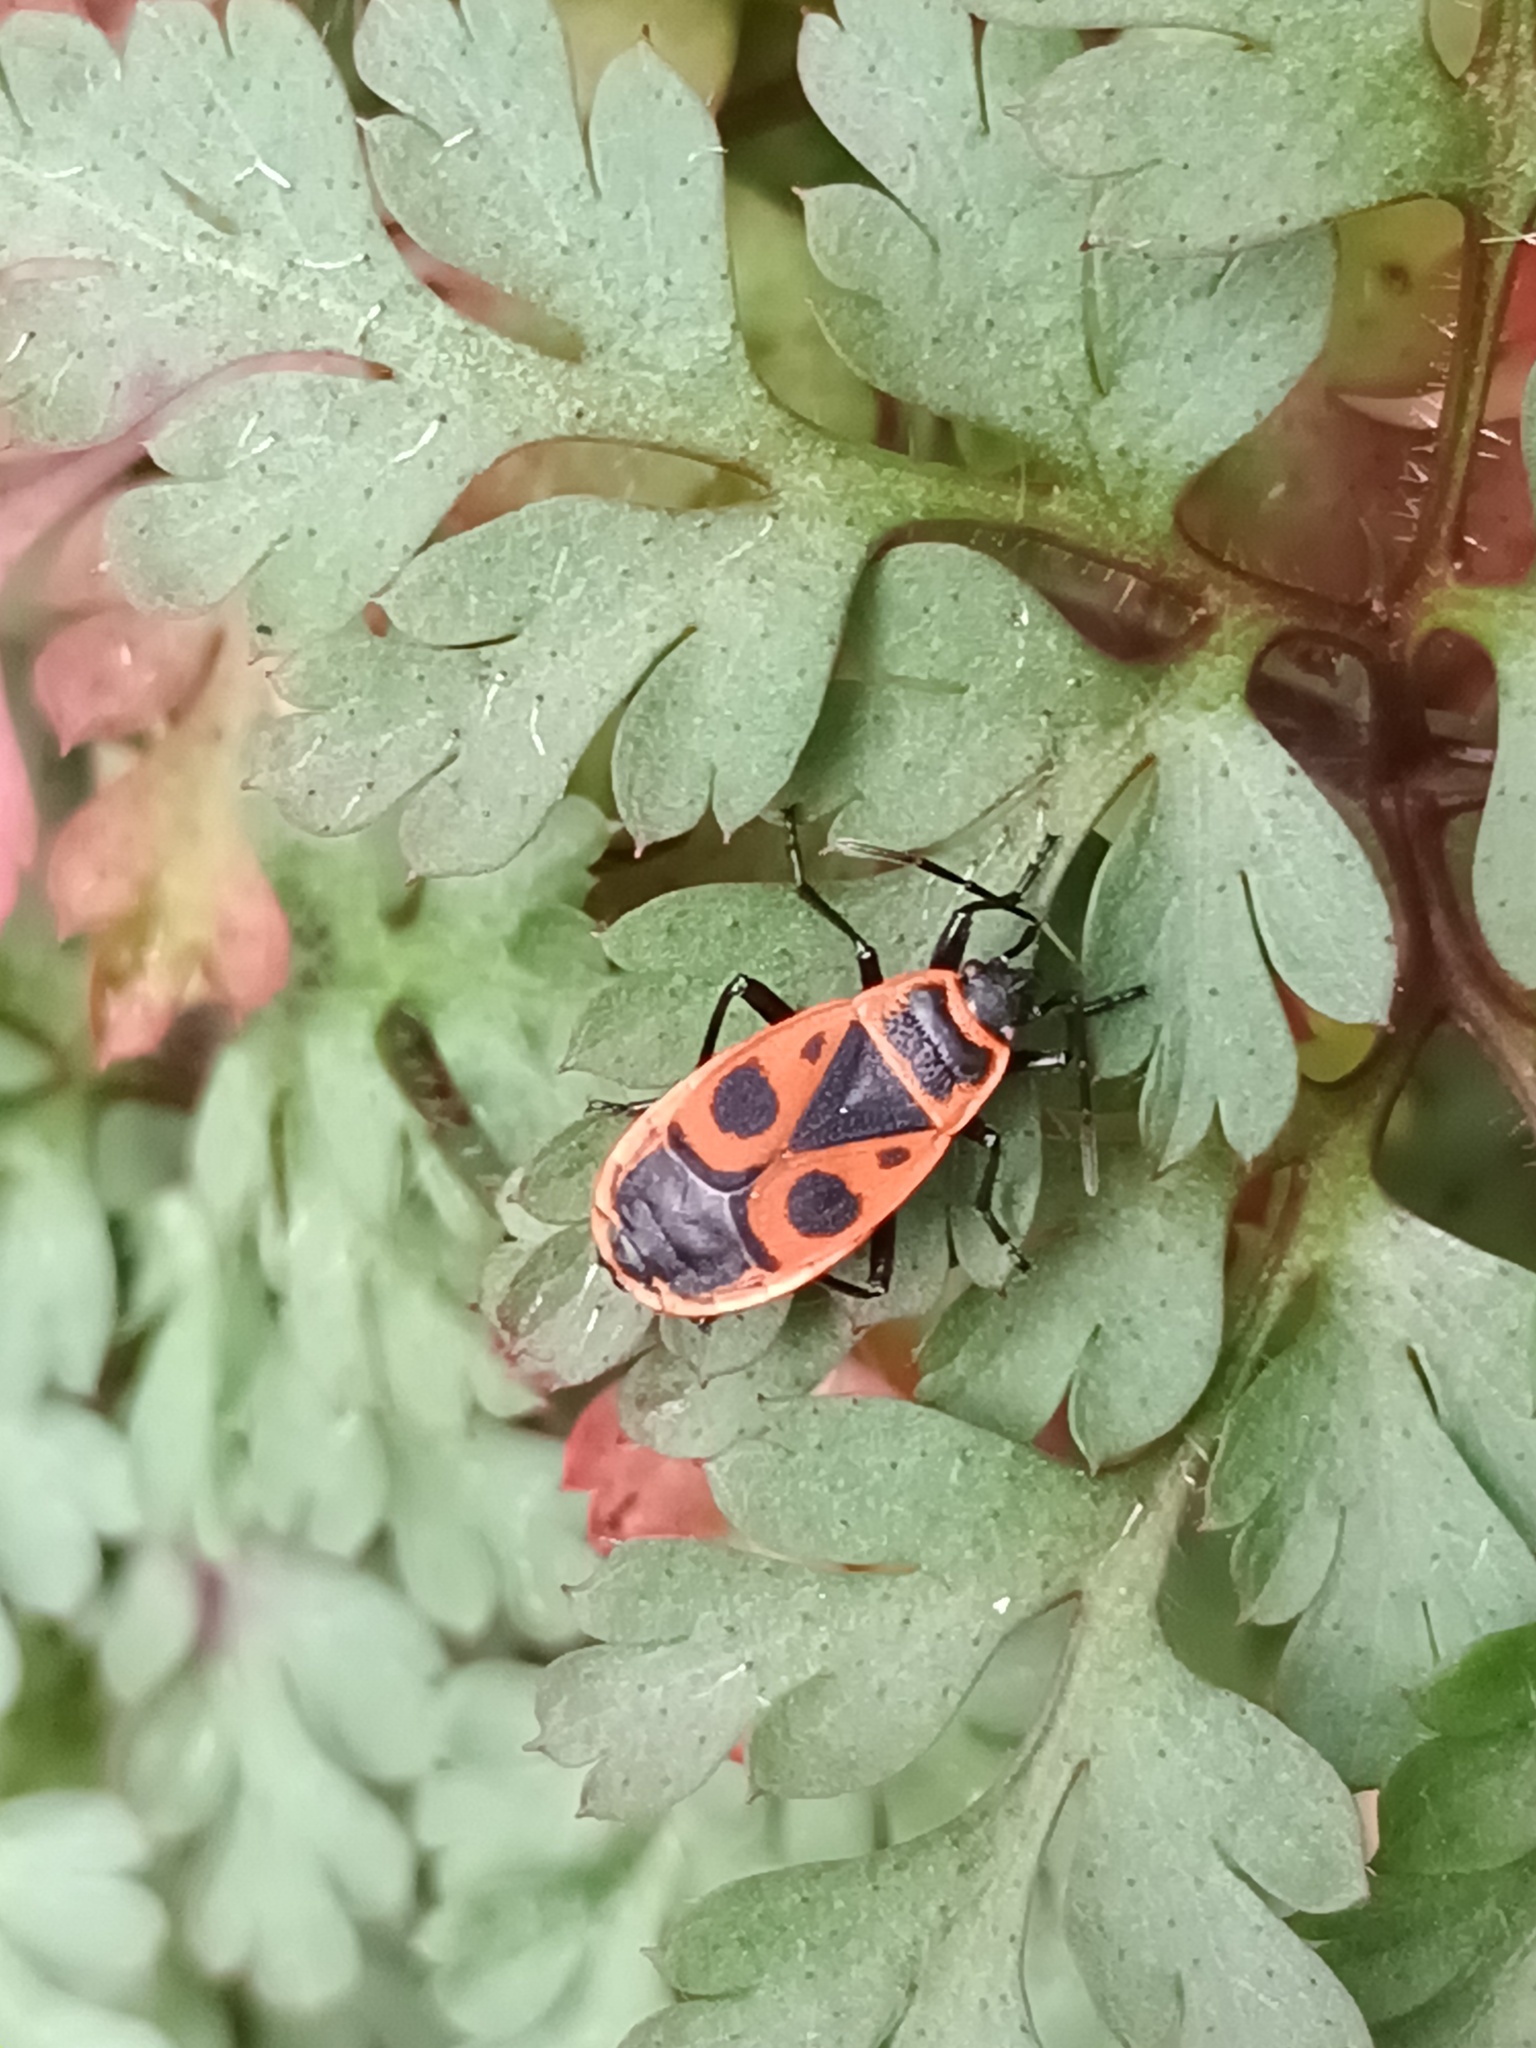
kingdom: Animalia
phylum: Arthropoda
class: Insecta
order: Hemiptera
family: Pyrrhocoridae
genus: Pyrrhocoris
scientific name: Pyrrhocoris apterus
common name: Firebug
